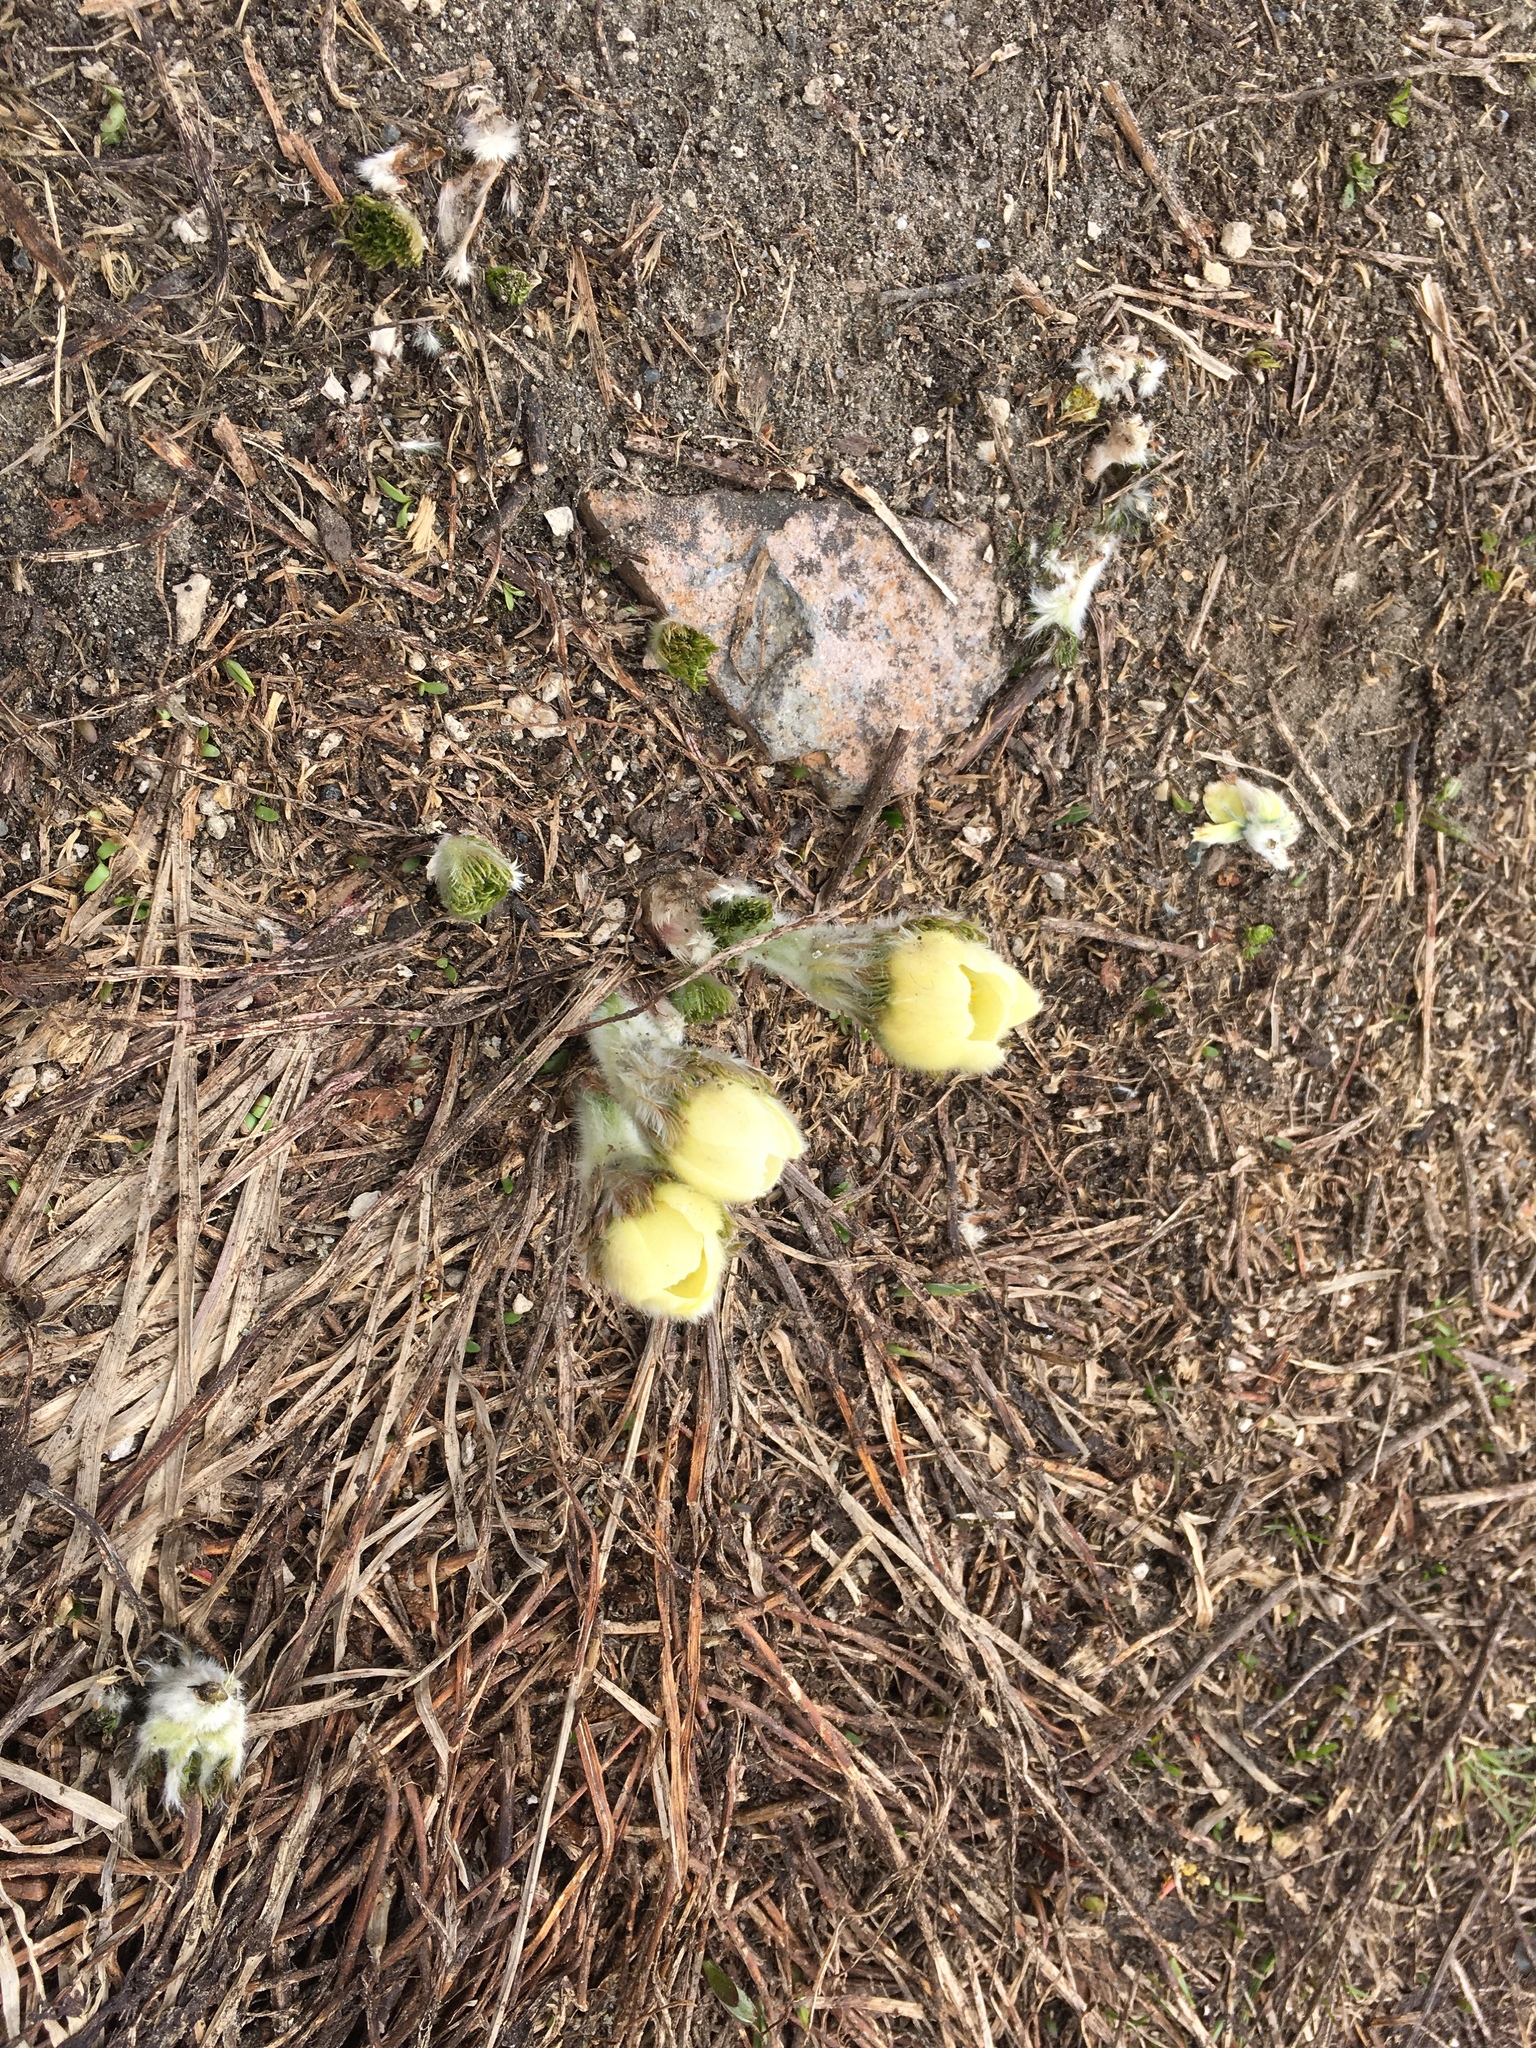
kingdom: Plantae
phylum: Tracheophyta
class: Magnoliopsida
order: Ranunculales
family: Ranunculaceae
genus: Pulsatilla
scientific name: Pulsatilla occidentalis
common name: Mountain pasqueflower
